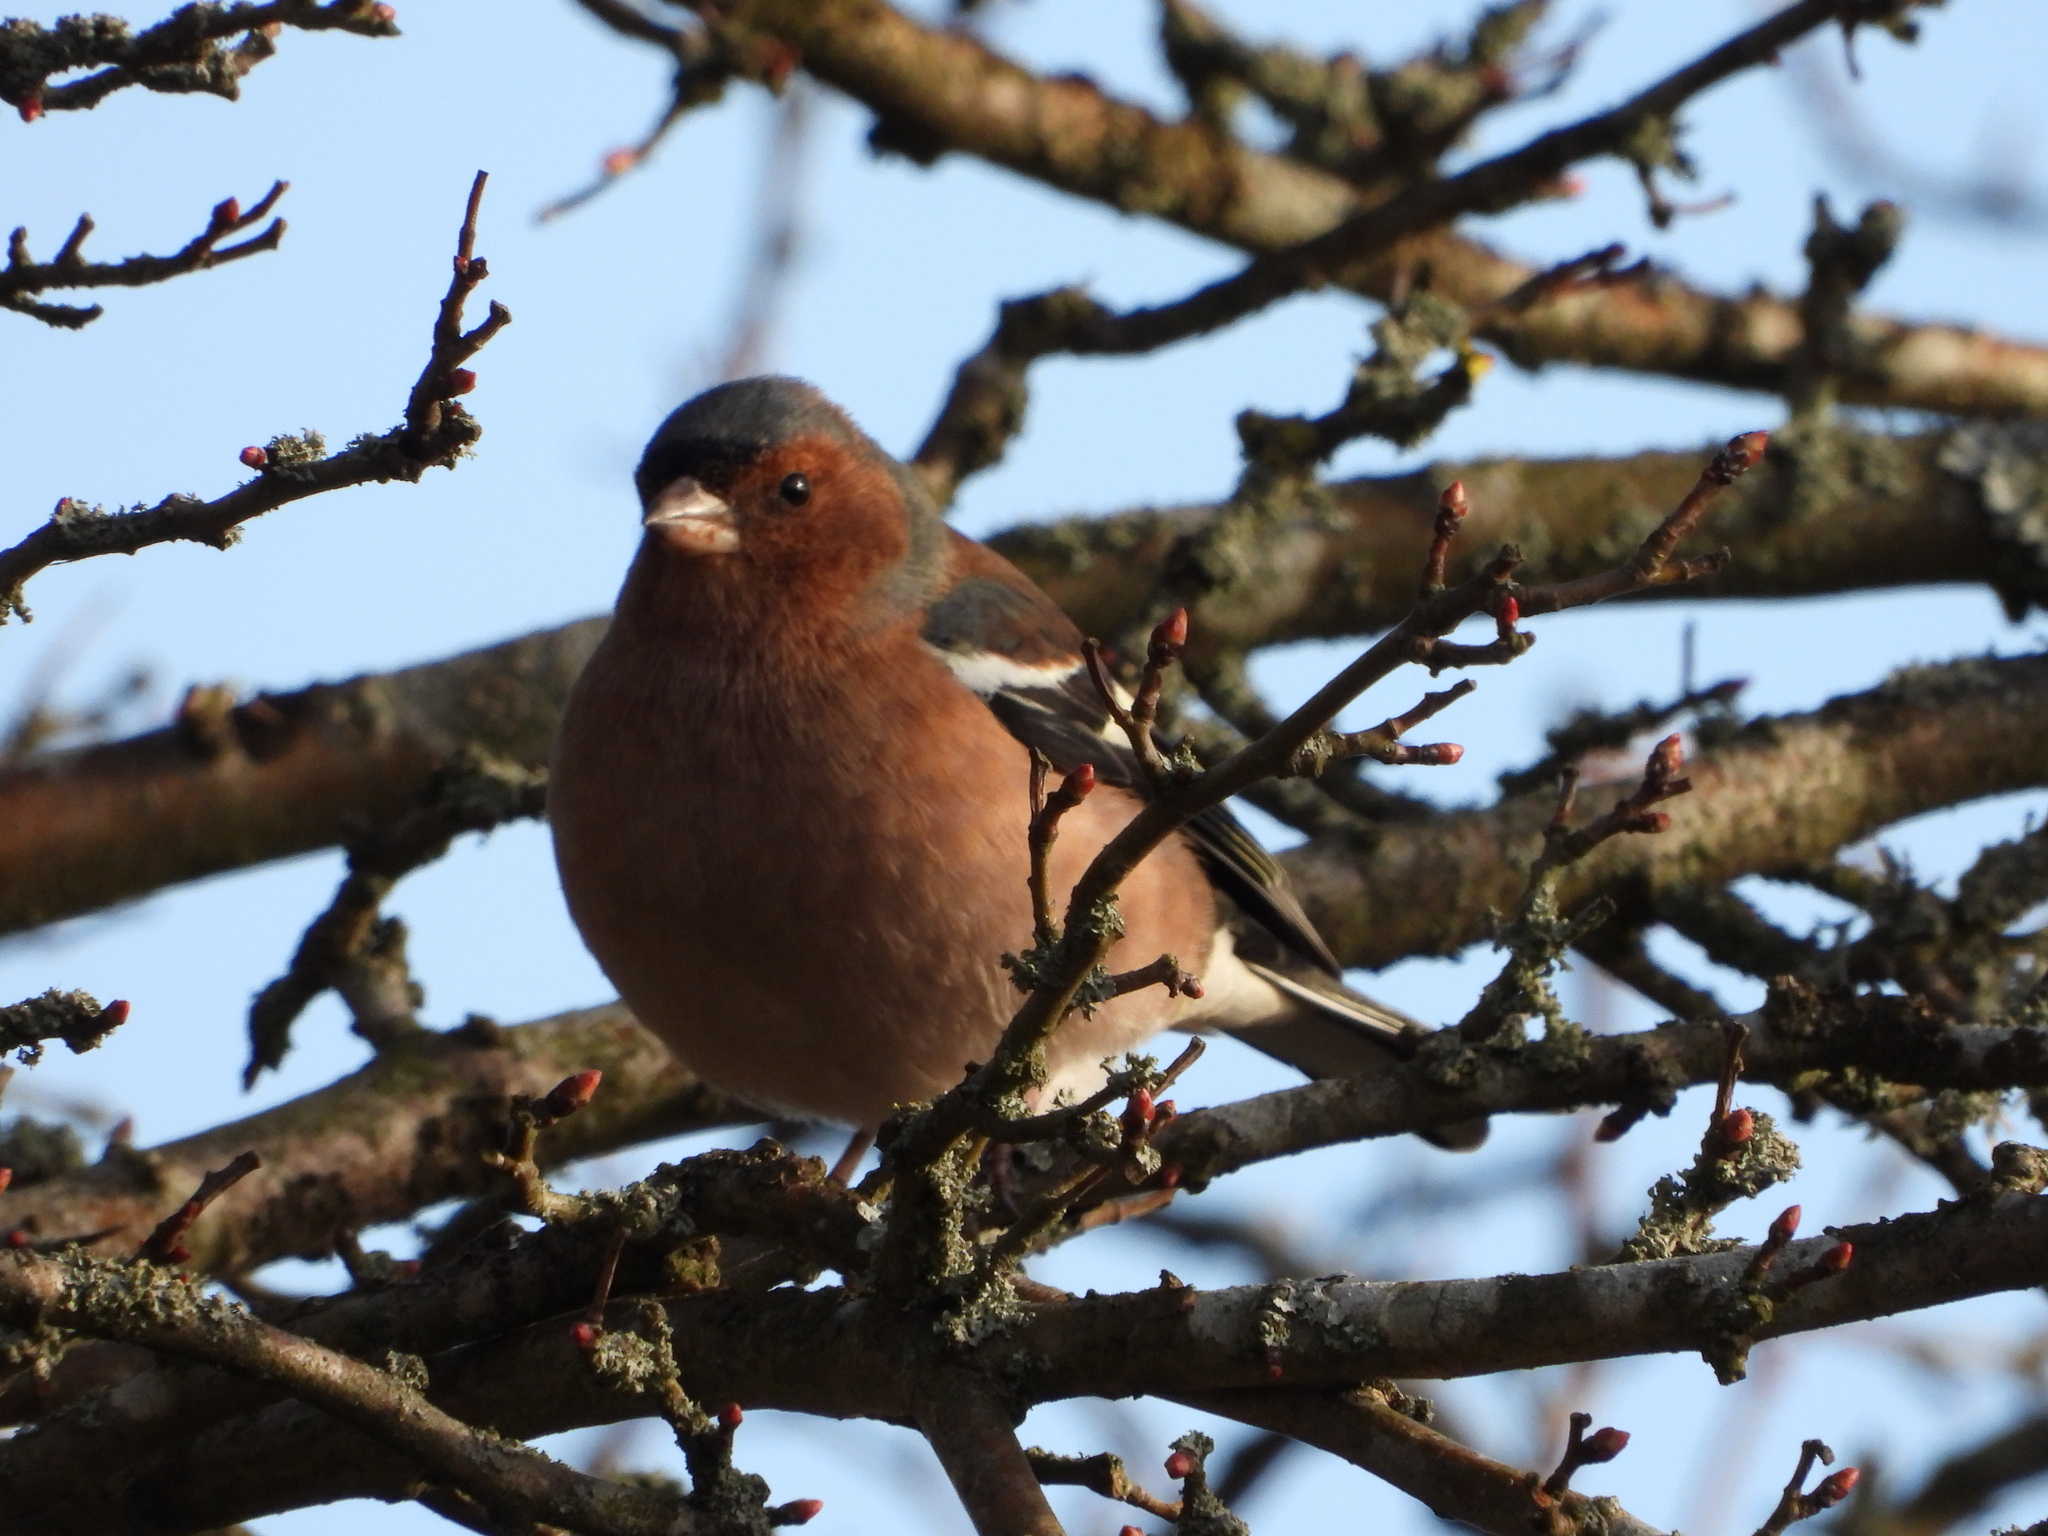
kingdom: Animalia
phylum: Chordata
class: Aves
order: Passeriformes
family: Fringillidae
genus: Fringilla
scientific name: Fringilla coelebs
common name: Common chaffinch
